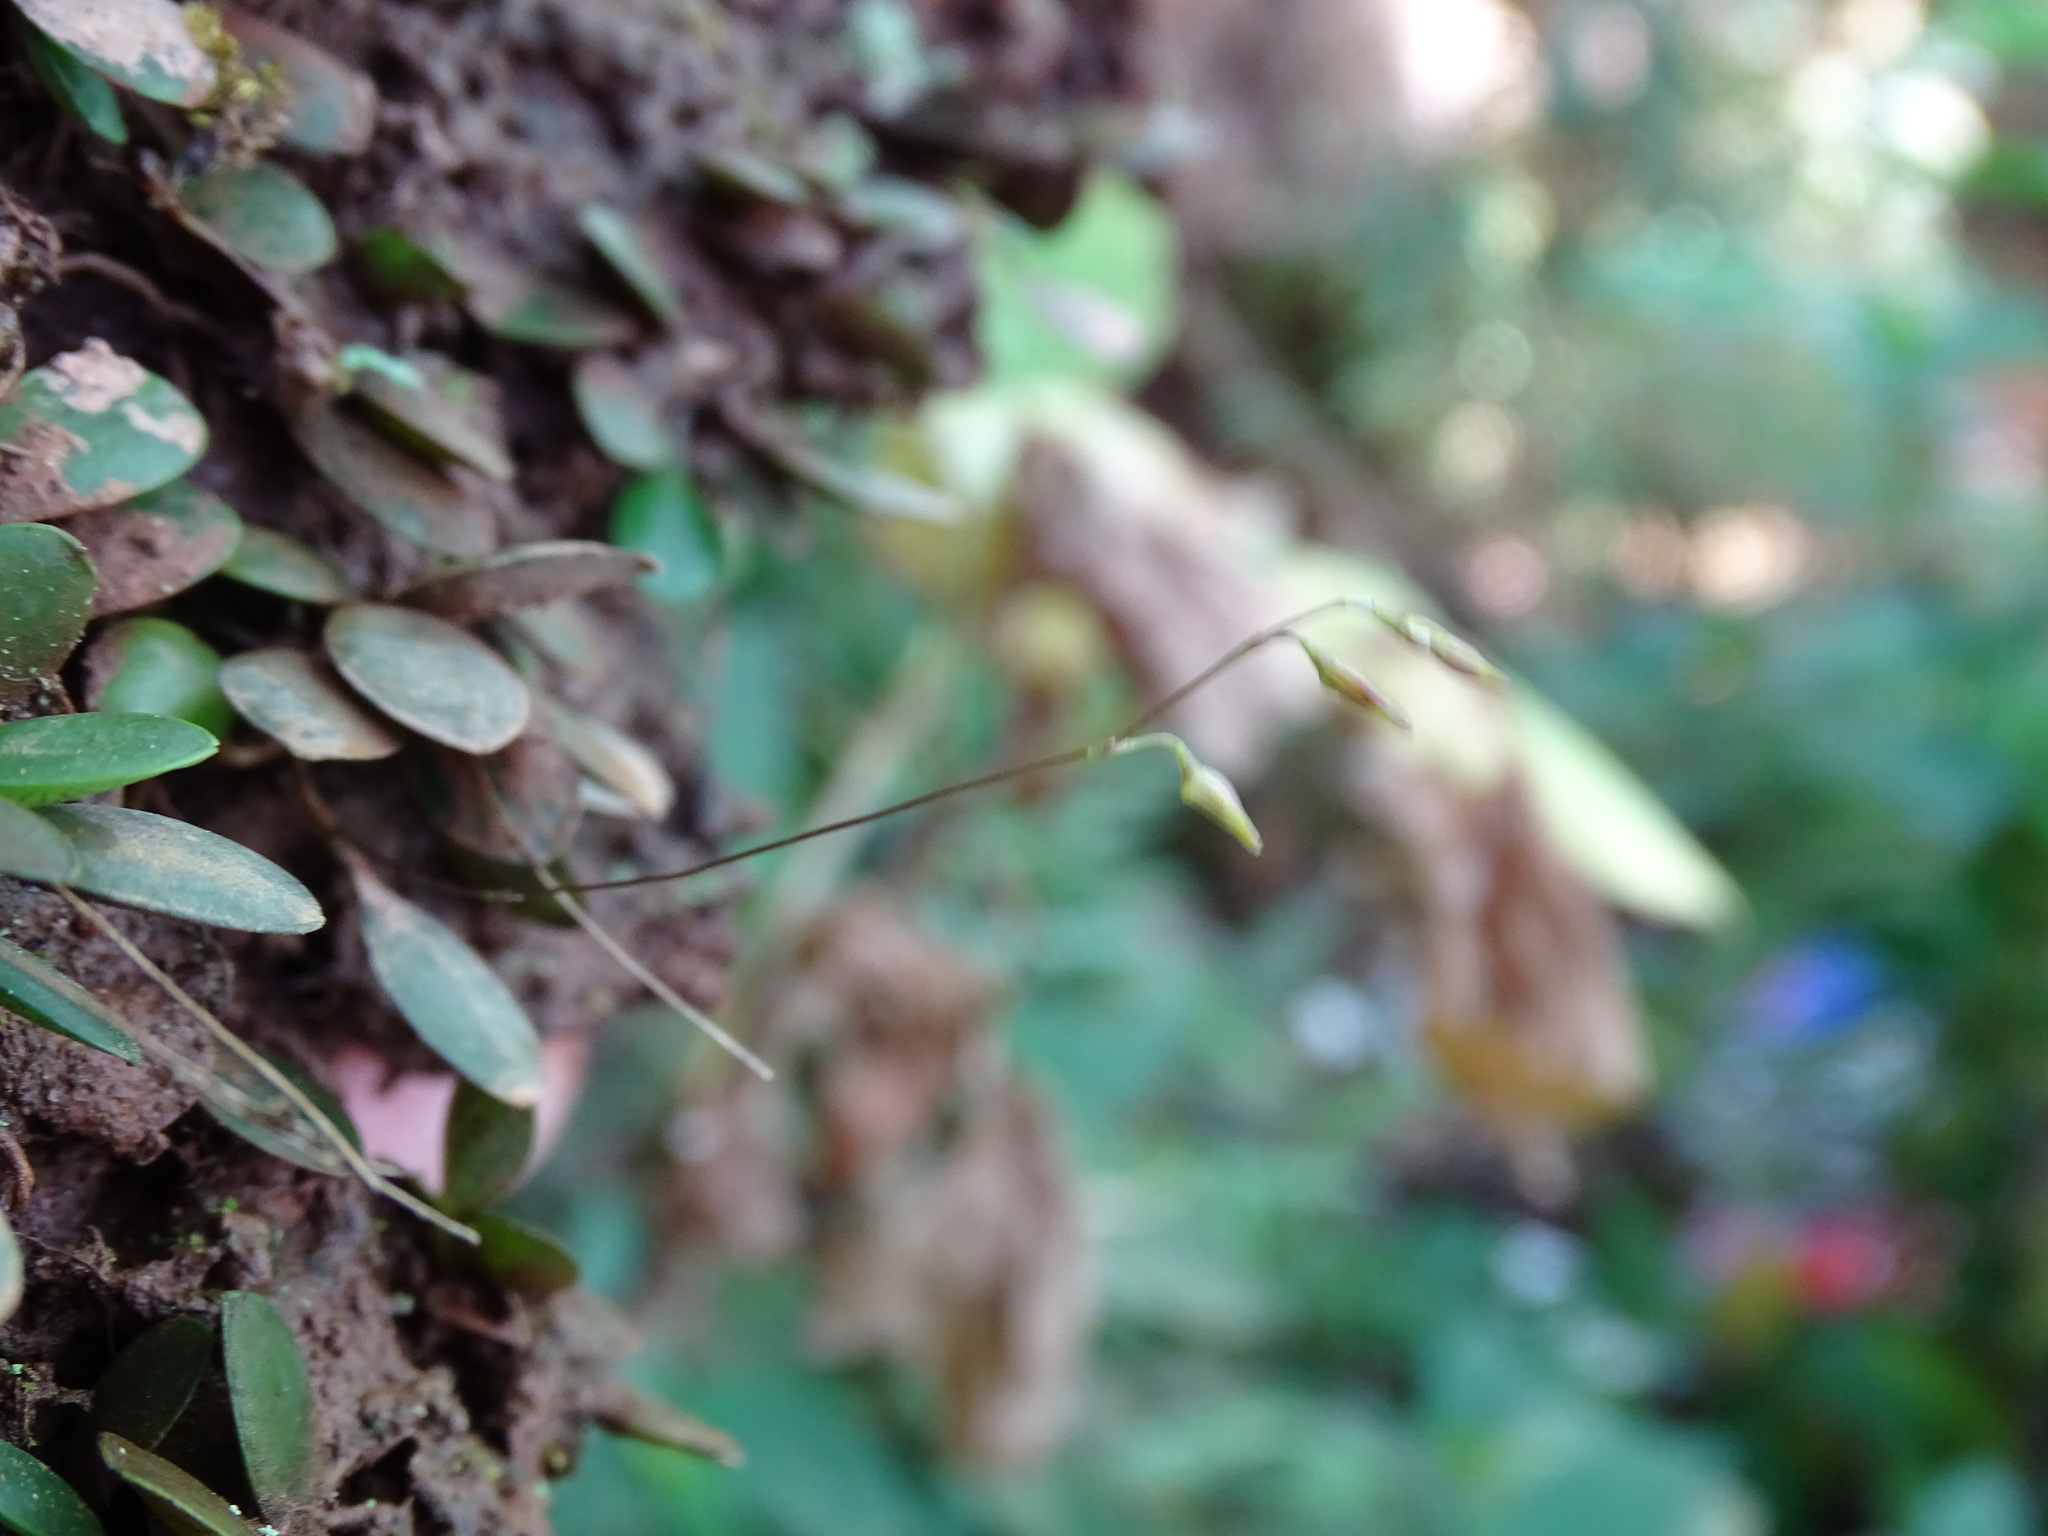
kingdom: Plantae
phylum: Tracheophyta
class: Liliopsida
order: Asparagales
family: Orchidaceae
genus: Specklinia
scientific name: Specklinia picta
